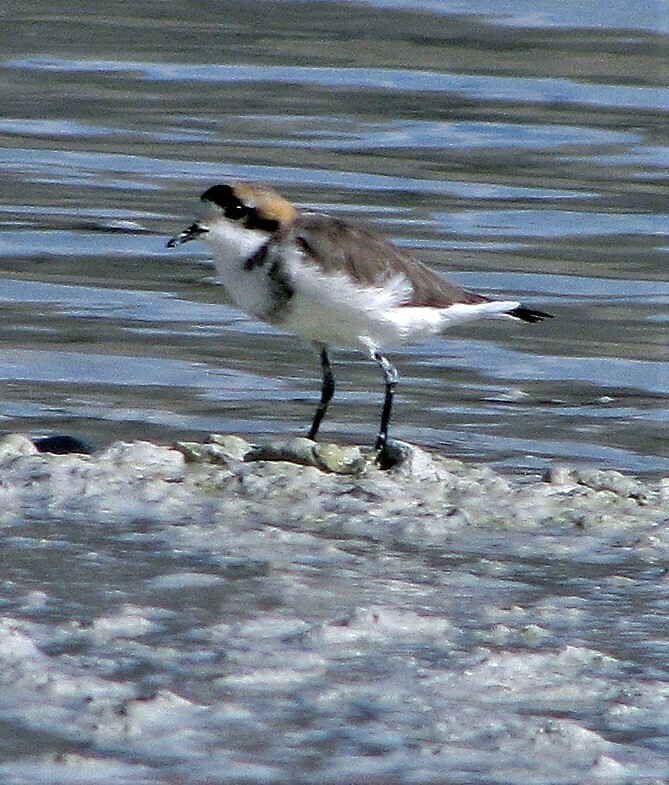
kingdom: Animalia
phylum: Chordata
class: Aves
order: Charadriiformes
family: Charadriidae
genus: Anarhynchus
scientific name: Anarhynchus
